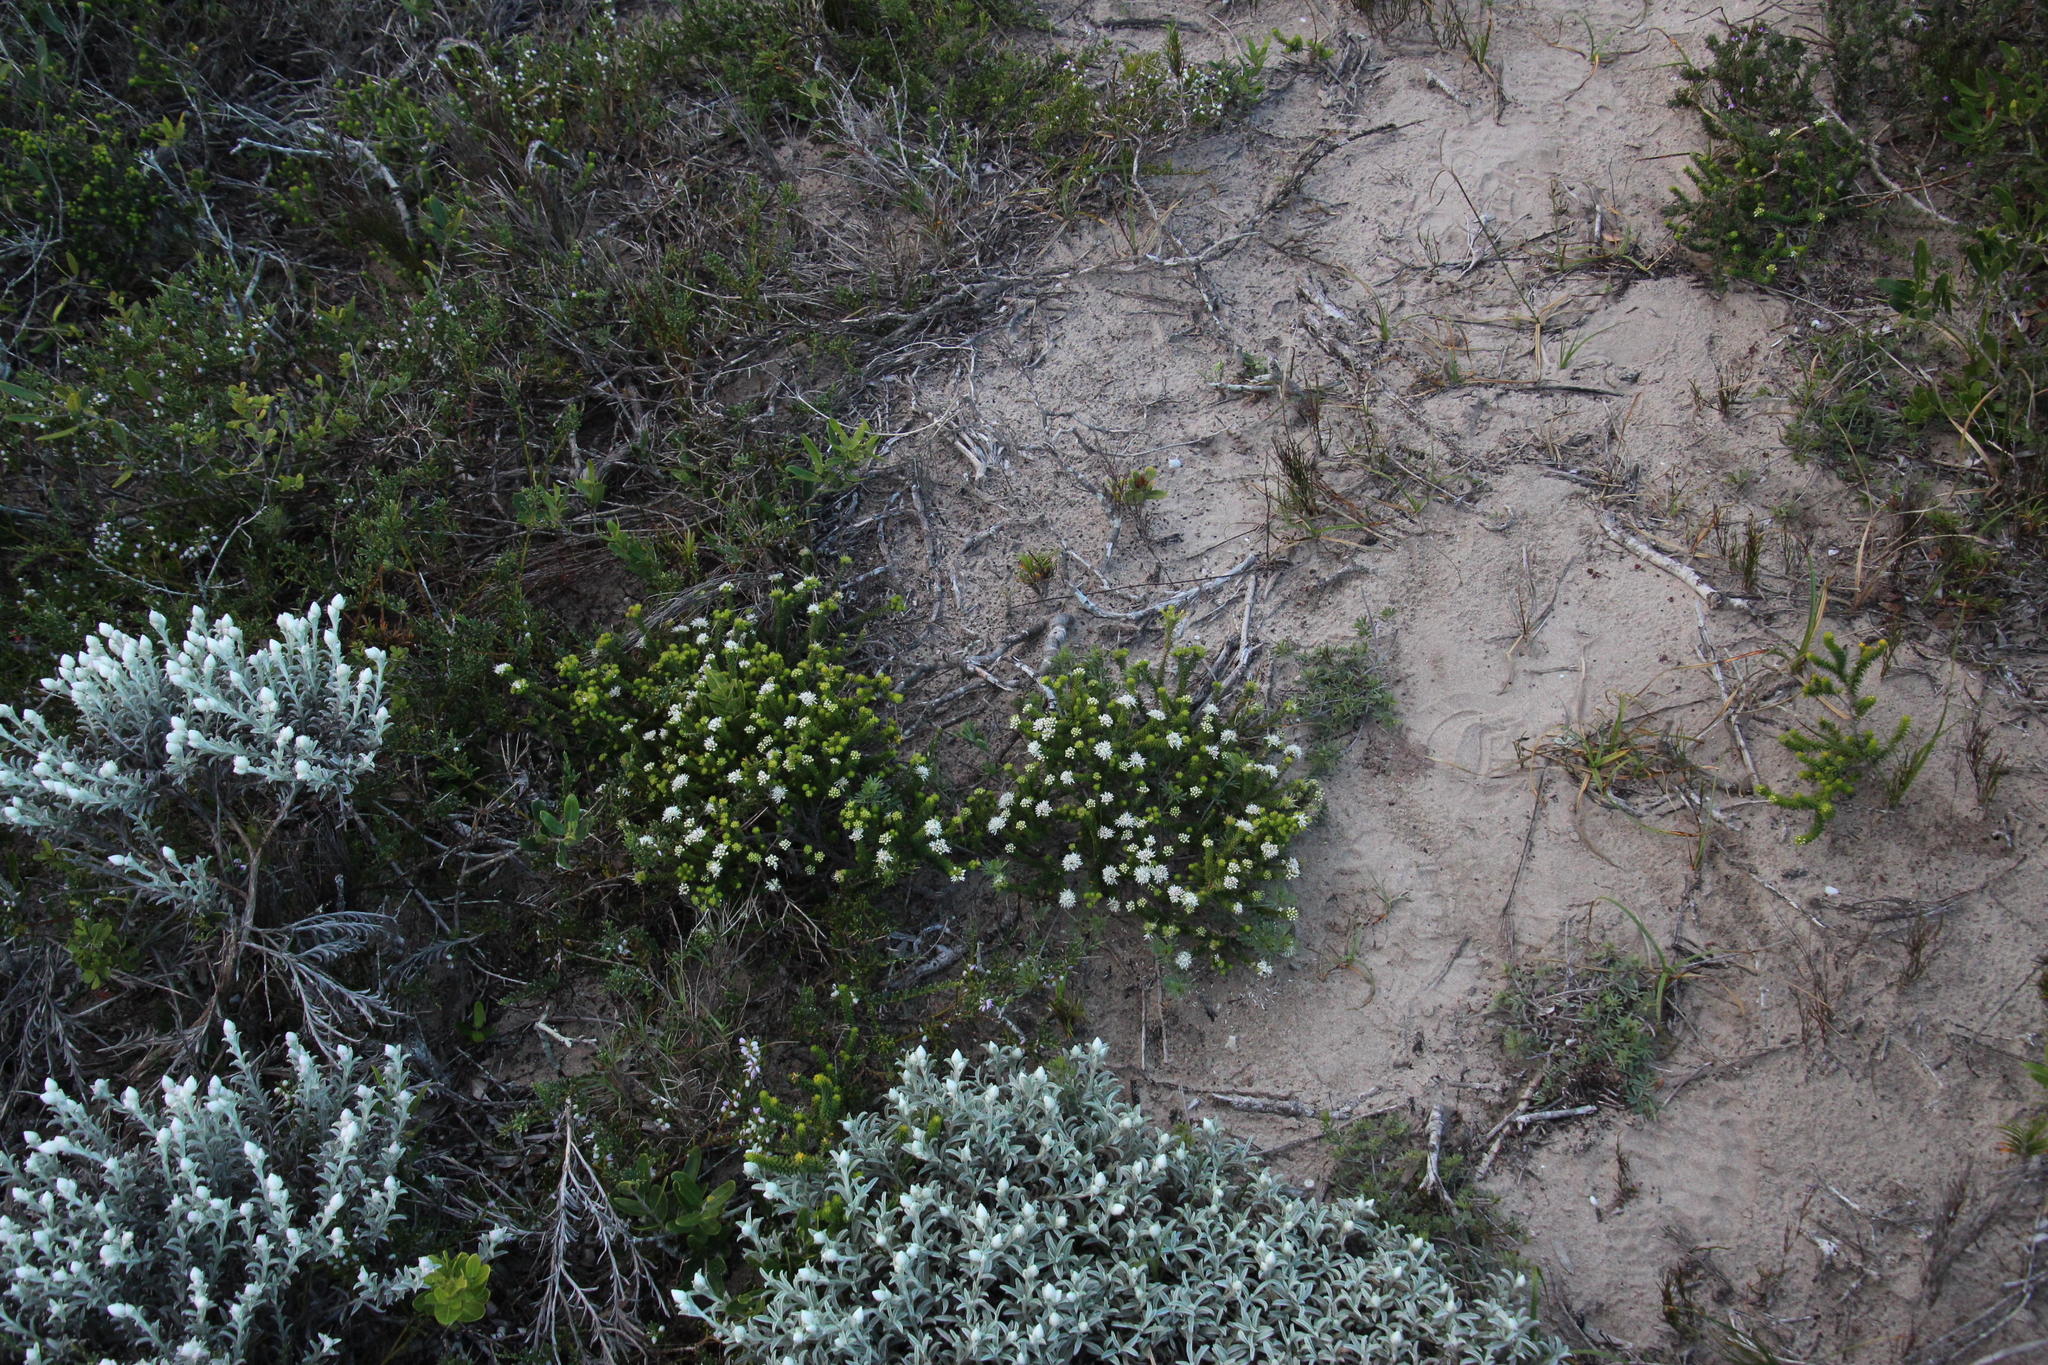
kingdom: Plantae
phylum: Tracheophyta
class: Magnoliopsida
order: Sapindales
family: Rutaceae
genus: Agathosma
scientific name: Agathosma apiculata
